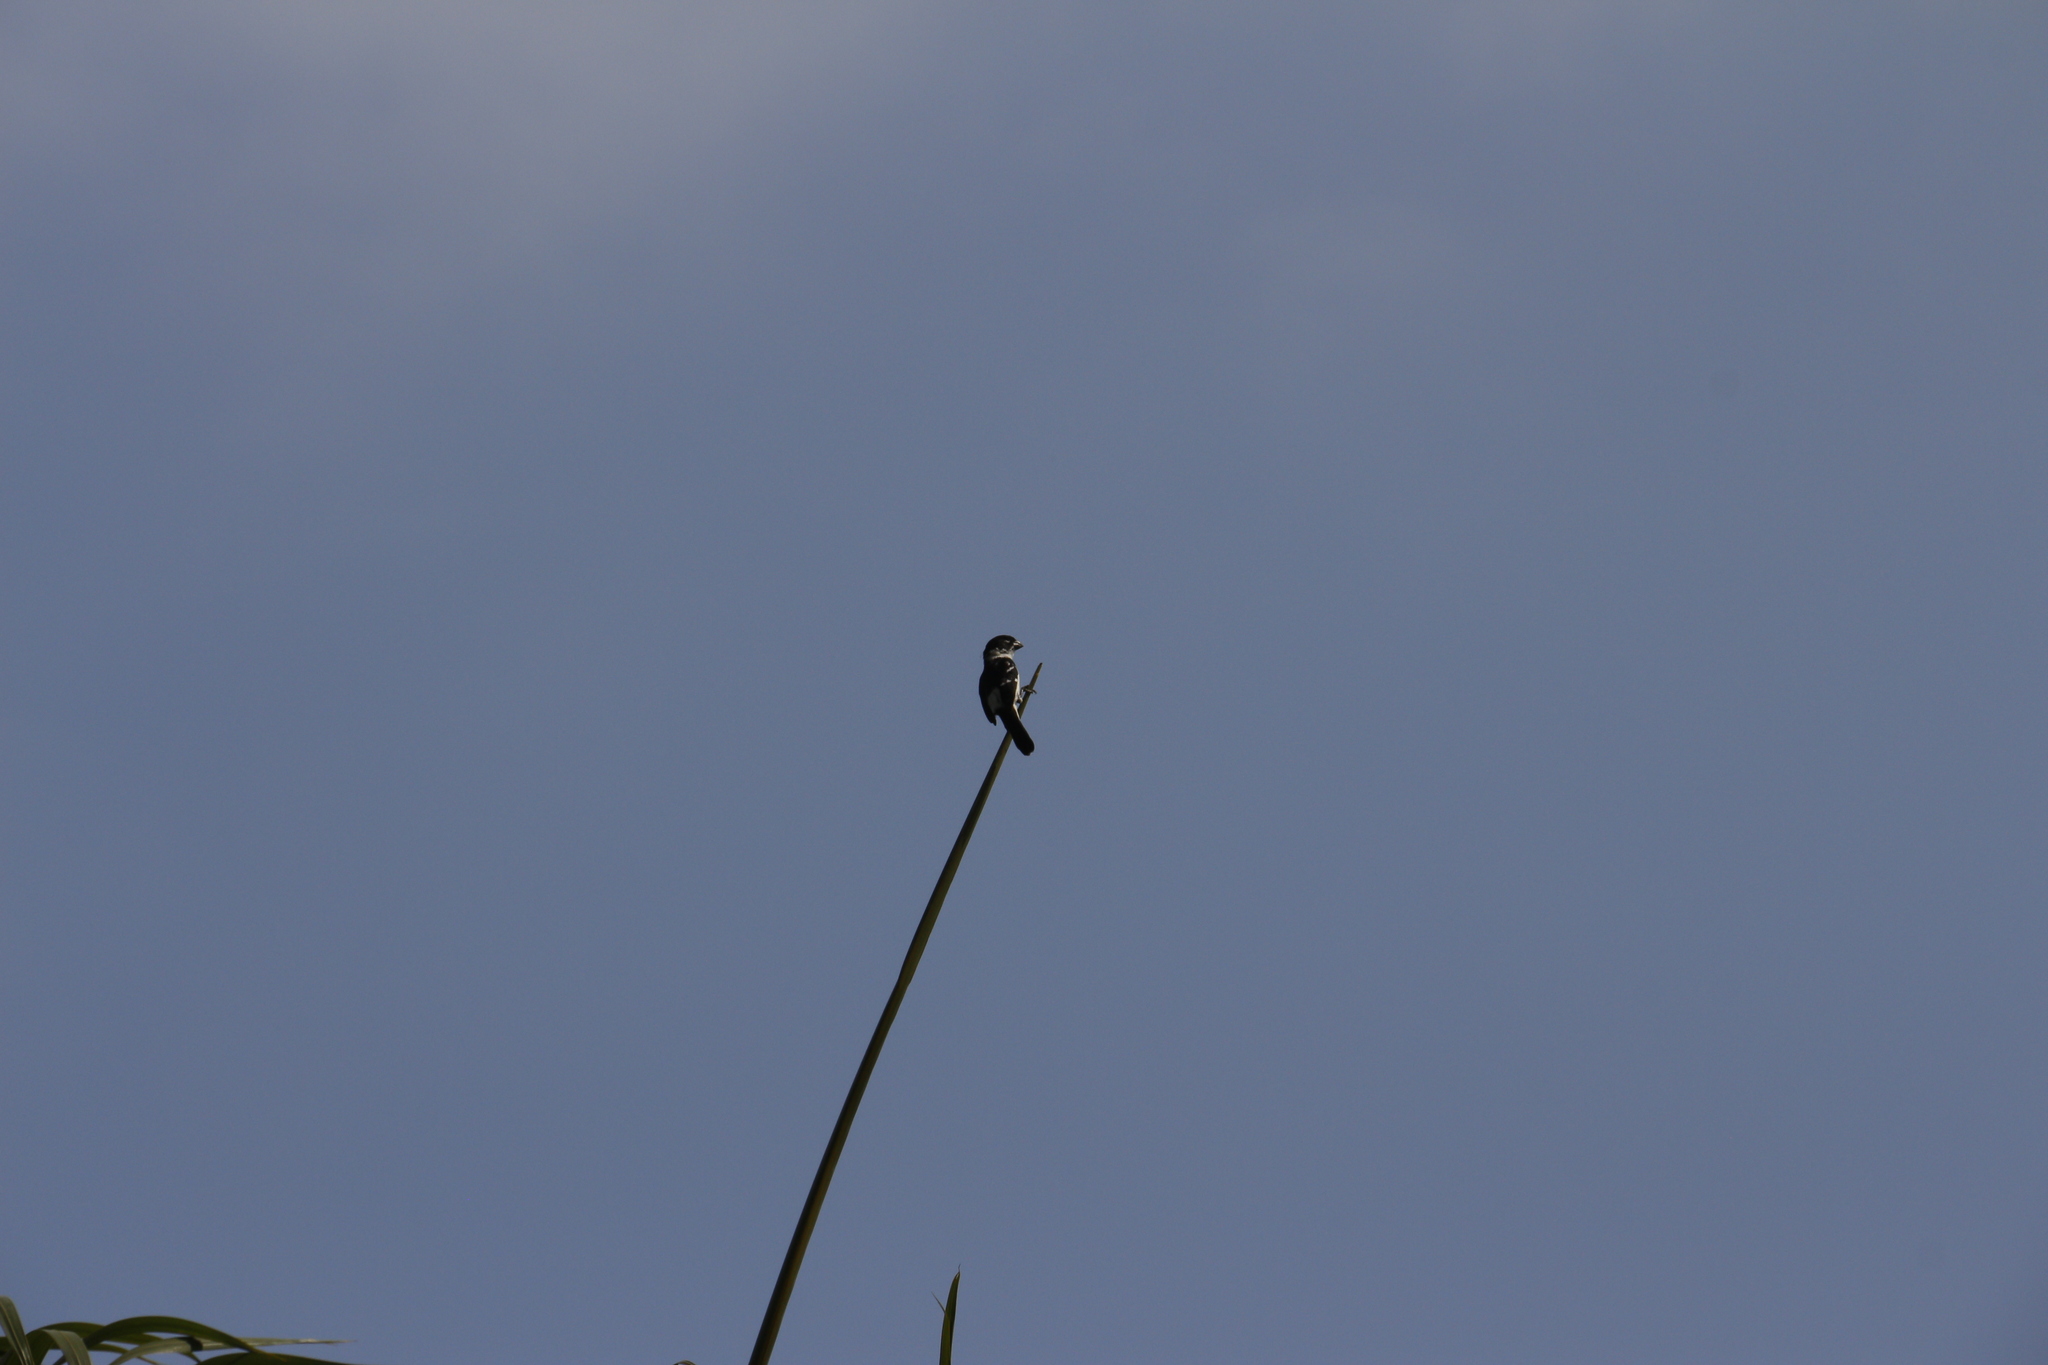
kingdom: Animalia
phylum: Chordata
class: Aves
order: Passeriformes
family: Thraupidae
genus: Sporophila
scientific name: Sporophila morelleti
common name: Morelet's seedeater
